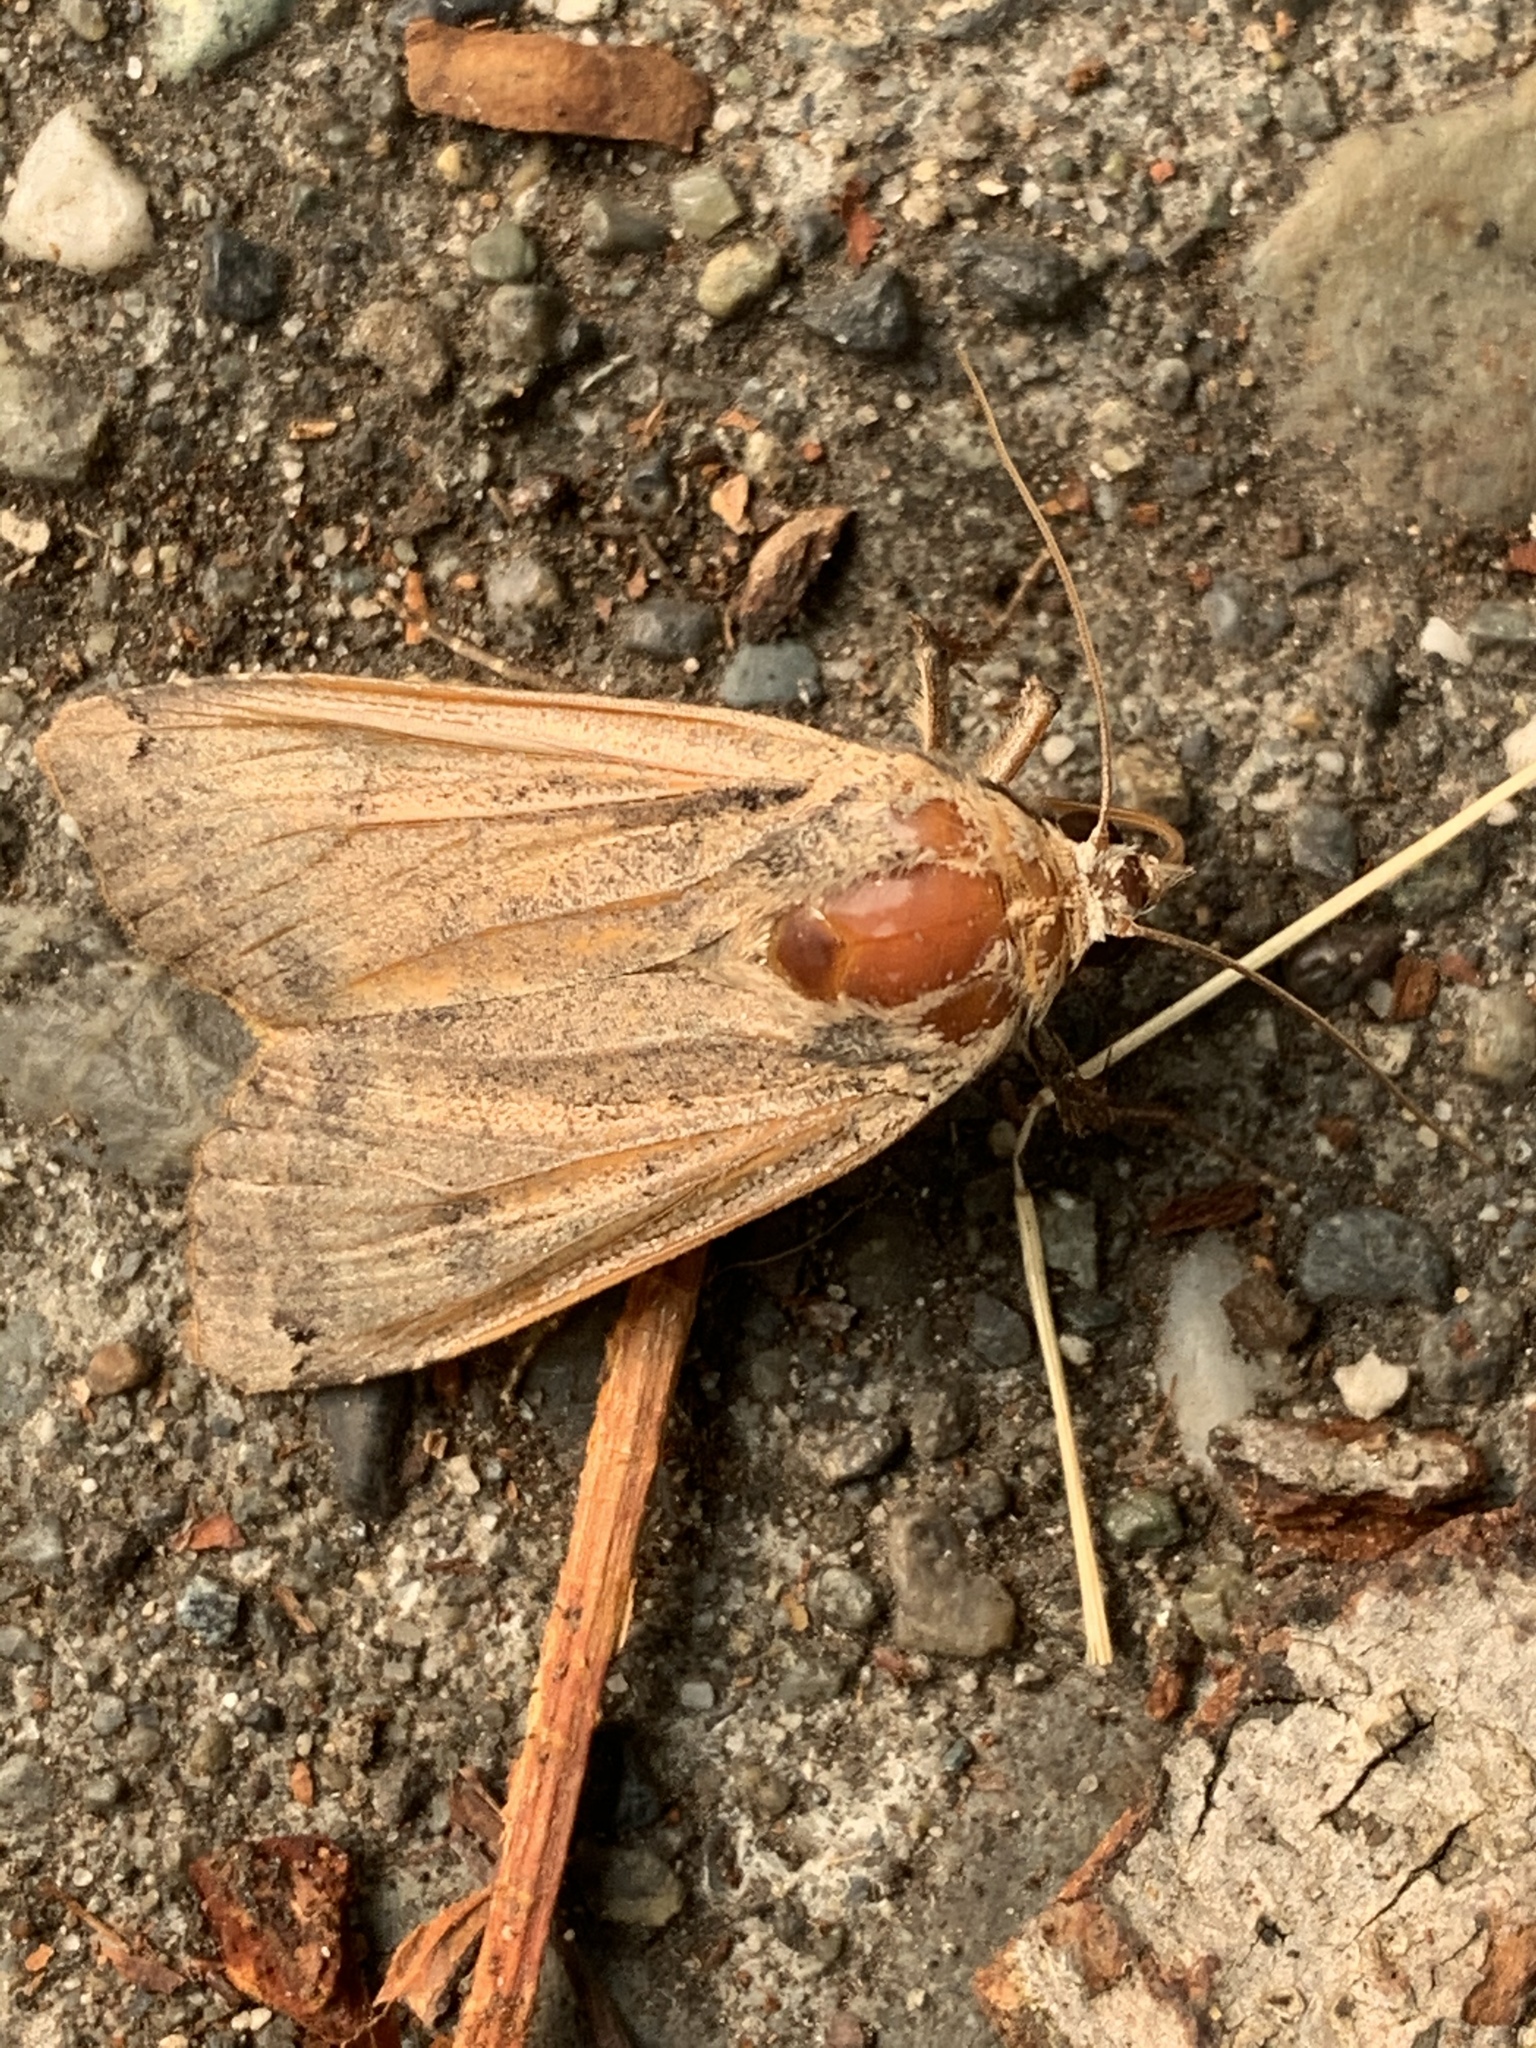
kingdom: Animalia
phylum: Arthropoda
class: Insecta
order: Lepidoptera
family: Noctuidae
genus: Noctua
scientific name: Noctua pronuba
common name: Large yellow underwing
